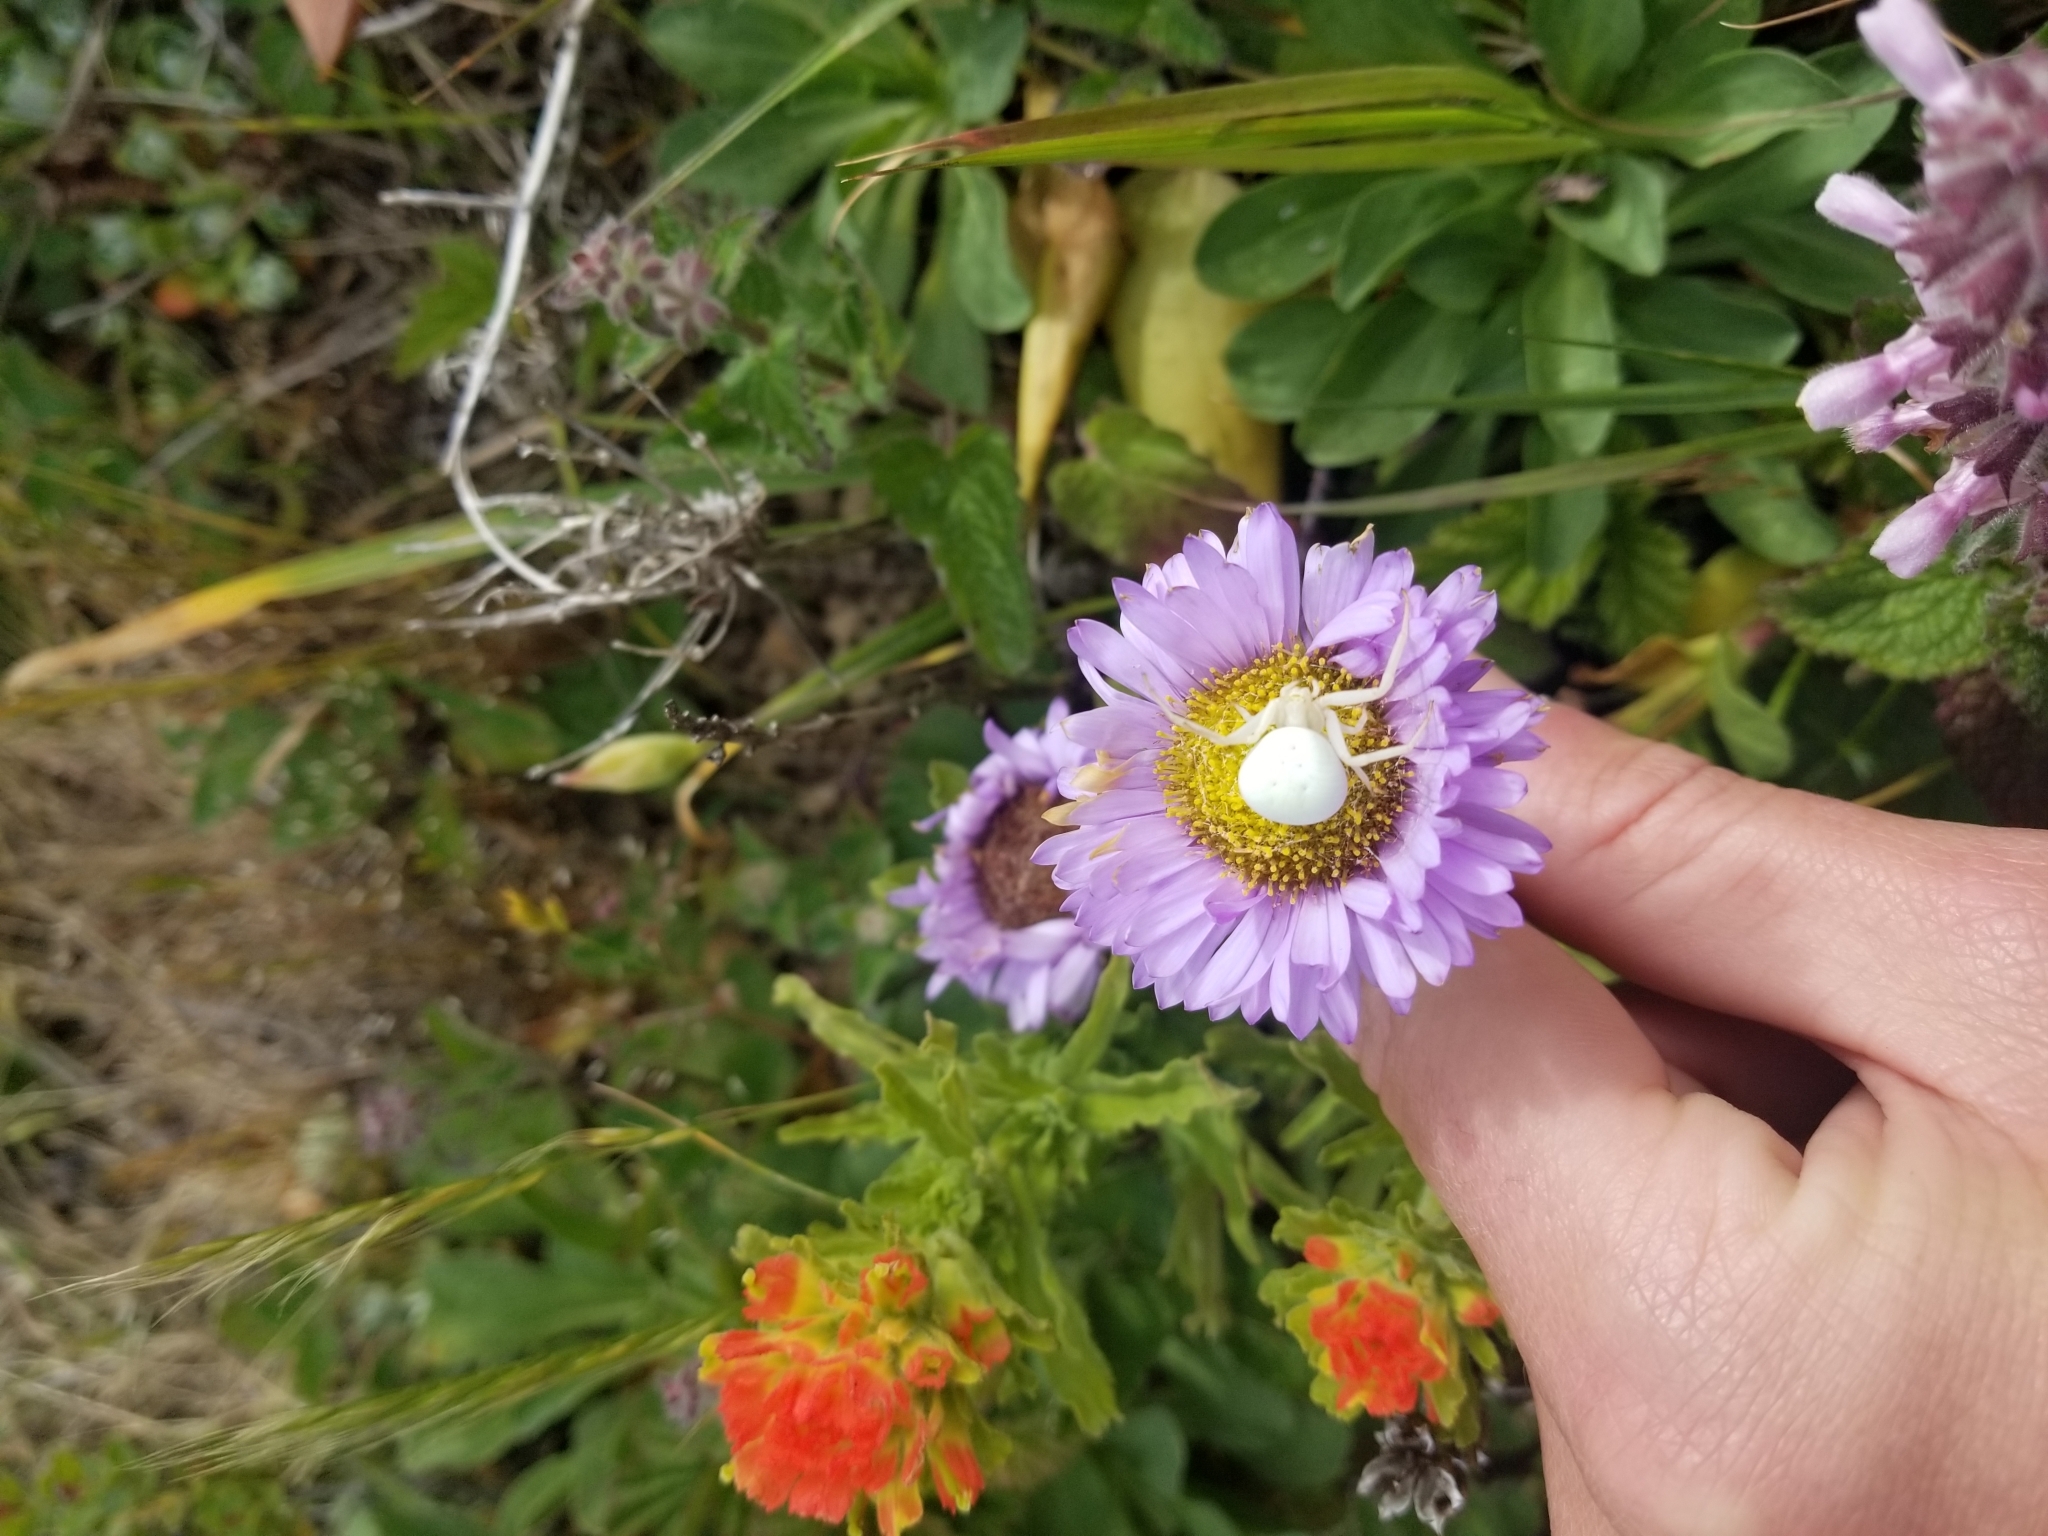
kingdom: Animalia
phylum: Arthropoda
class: Arachnida
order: Araneae
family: Thomisidae
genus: Misumena
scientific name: Misumena vatia
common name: Goldenrod crab spider
